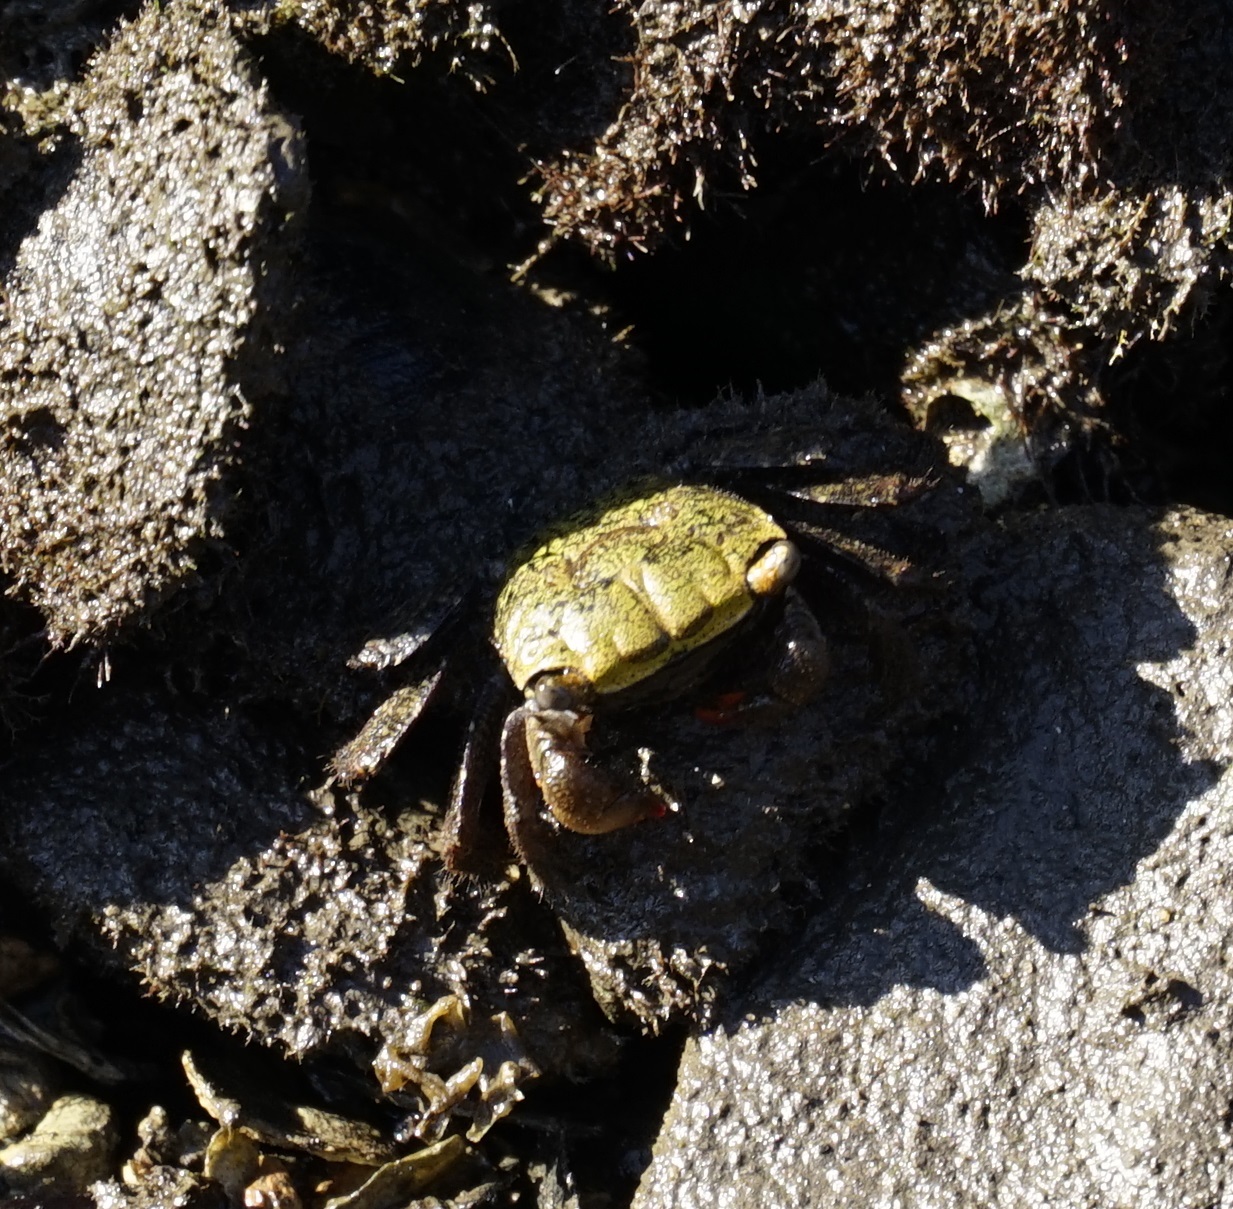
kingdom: Animalia
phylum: Arthropoda
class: Malacostraca
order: Decapoda
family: Sesarmidae
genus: Parasesarma
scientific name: Parasesarma erythodactylum
